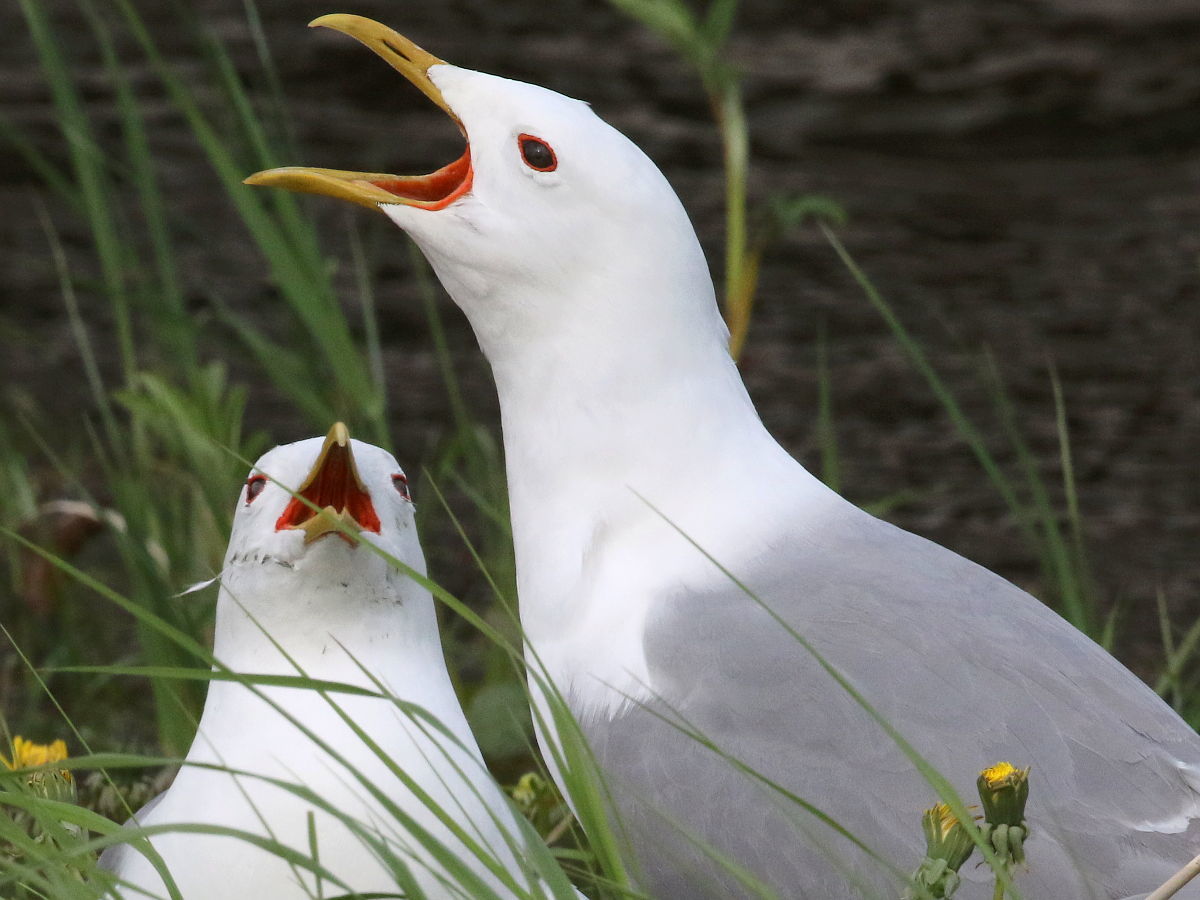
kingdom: Animalia
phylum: Chordata
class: Aves
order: Charadriiformes
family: Laridae
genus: Larus
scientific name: Larus canus
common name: Mew gull
